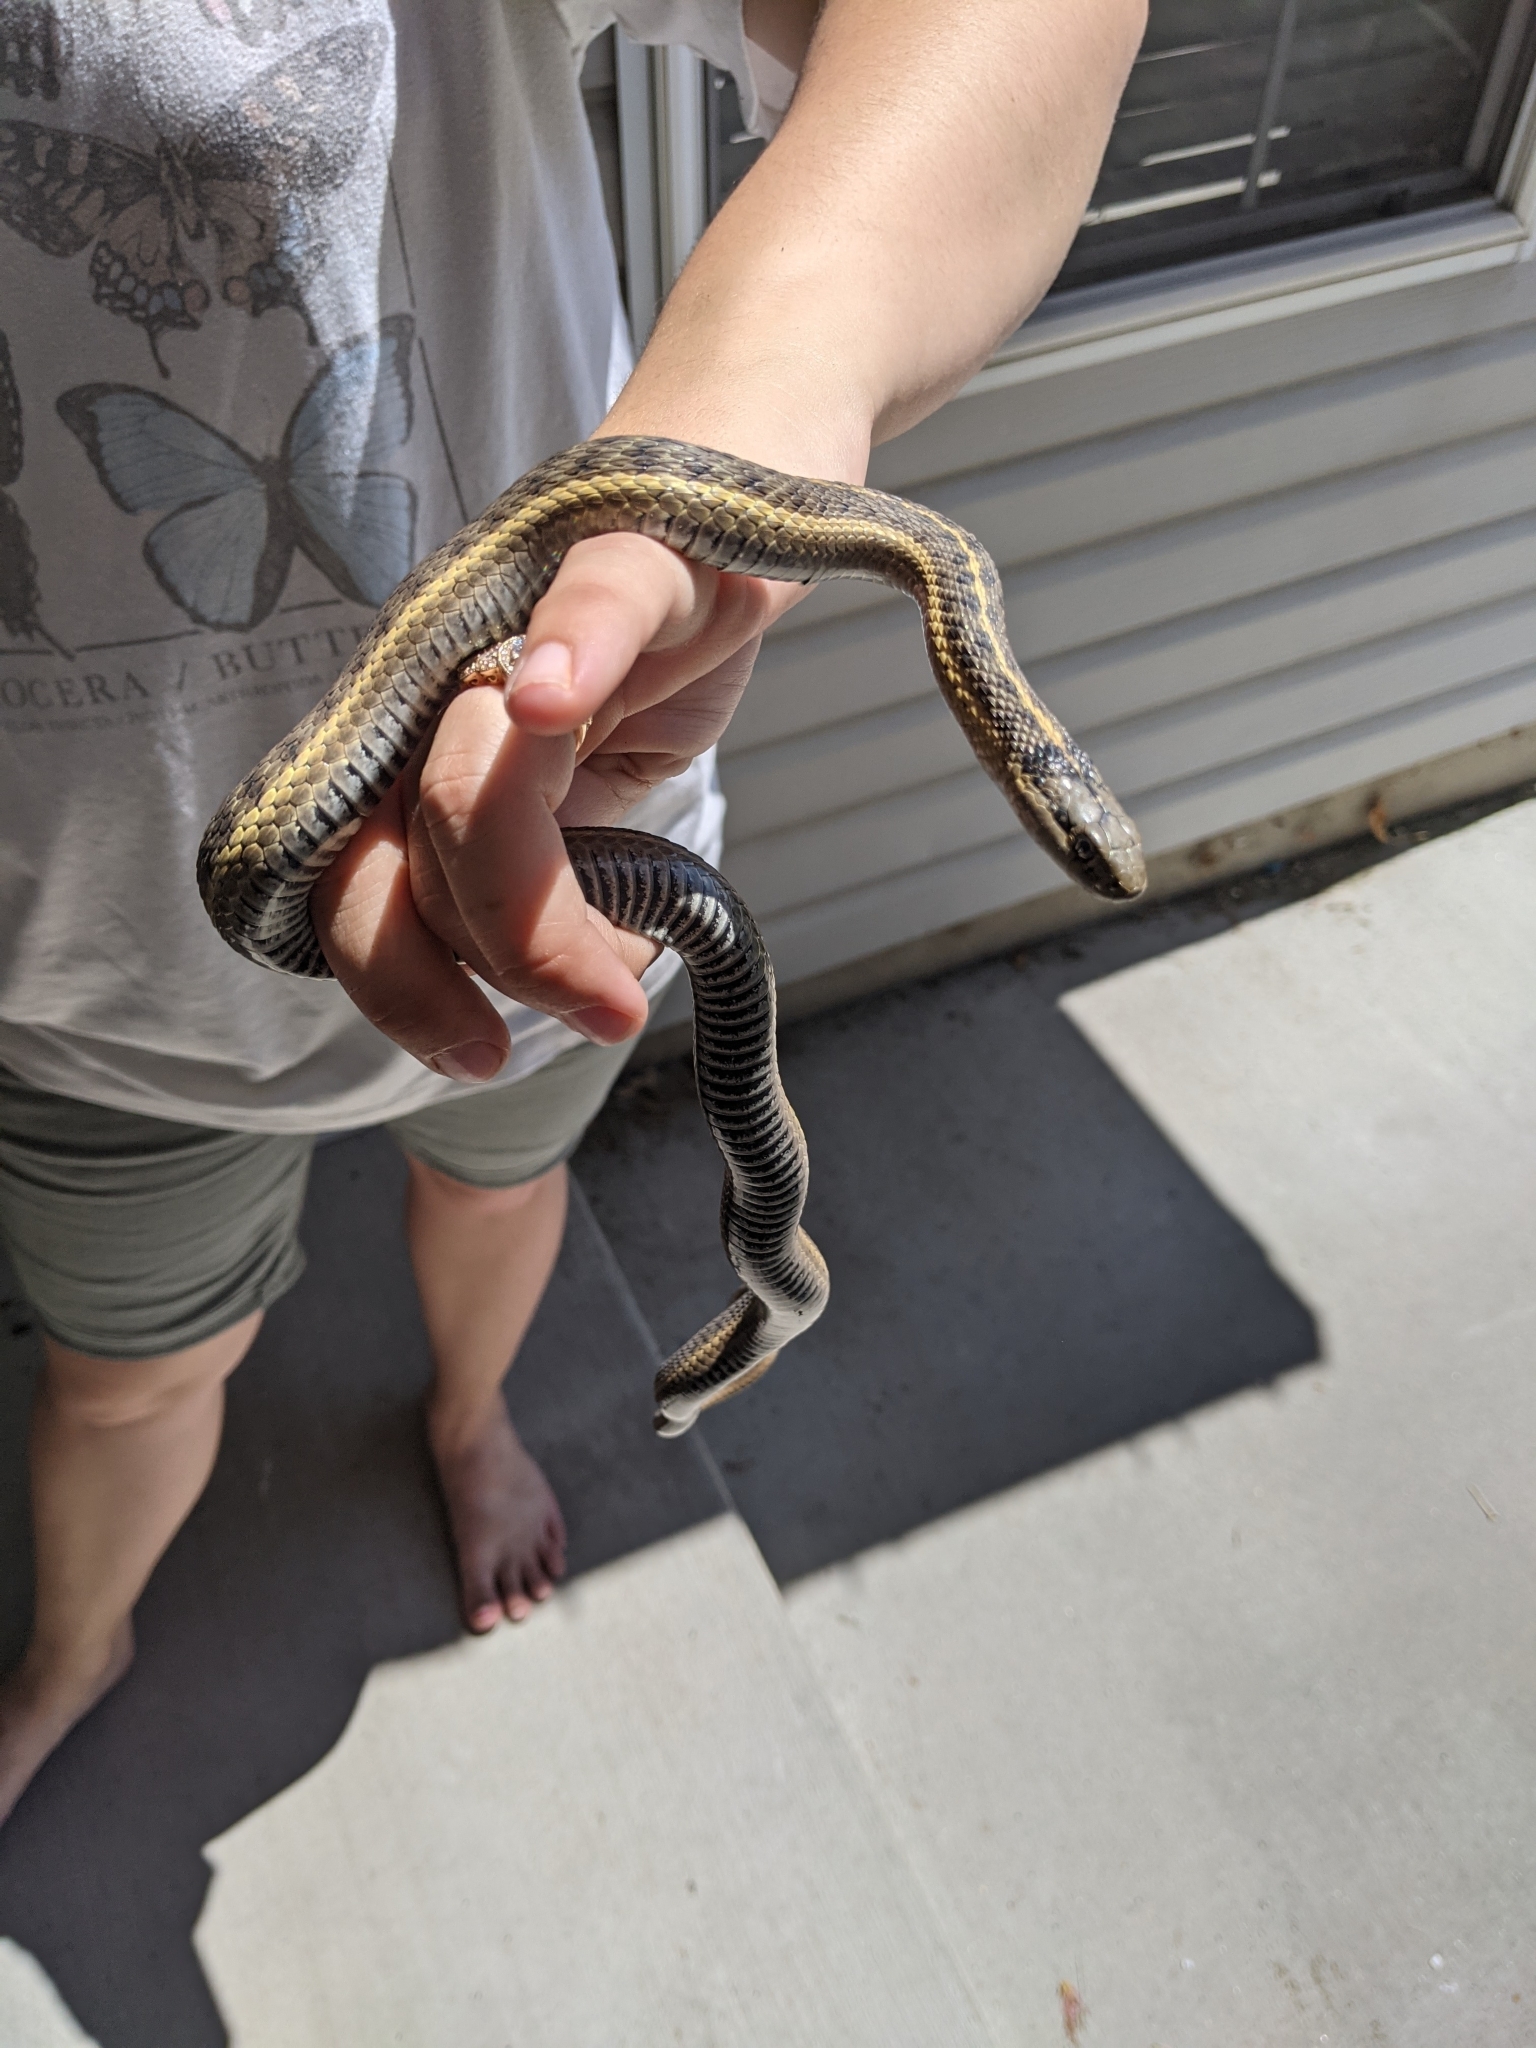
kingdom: Animalia
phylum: Chordata
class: Squamata
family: Colubridae
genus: Thamnophis
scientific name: Thamnophis elegans
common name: Western terrestrial garter snake
